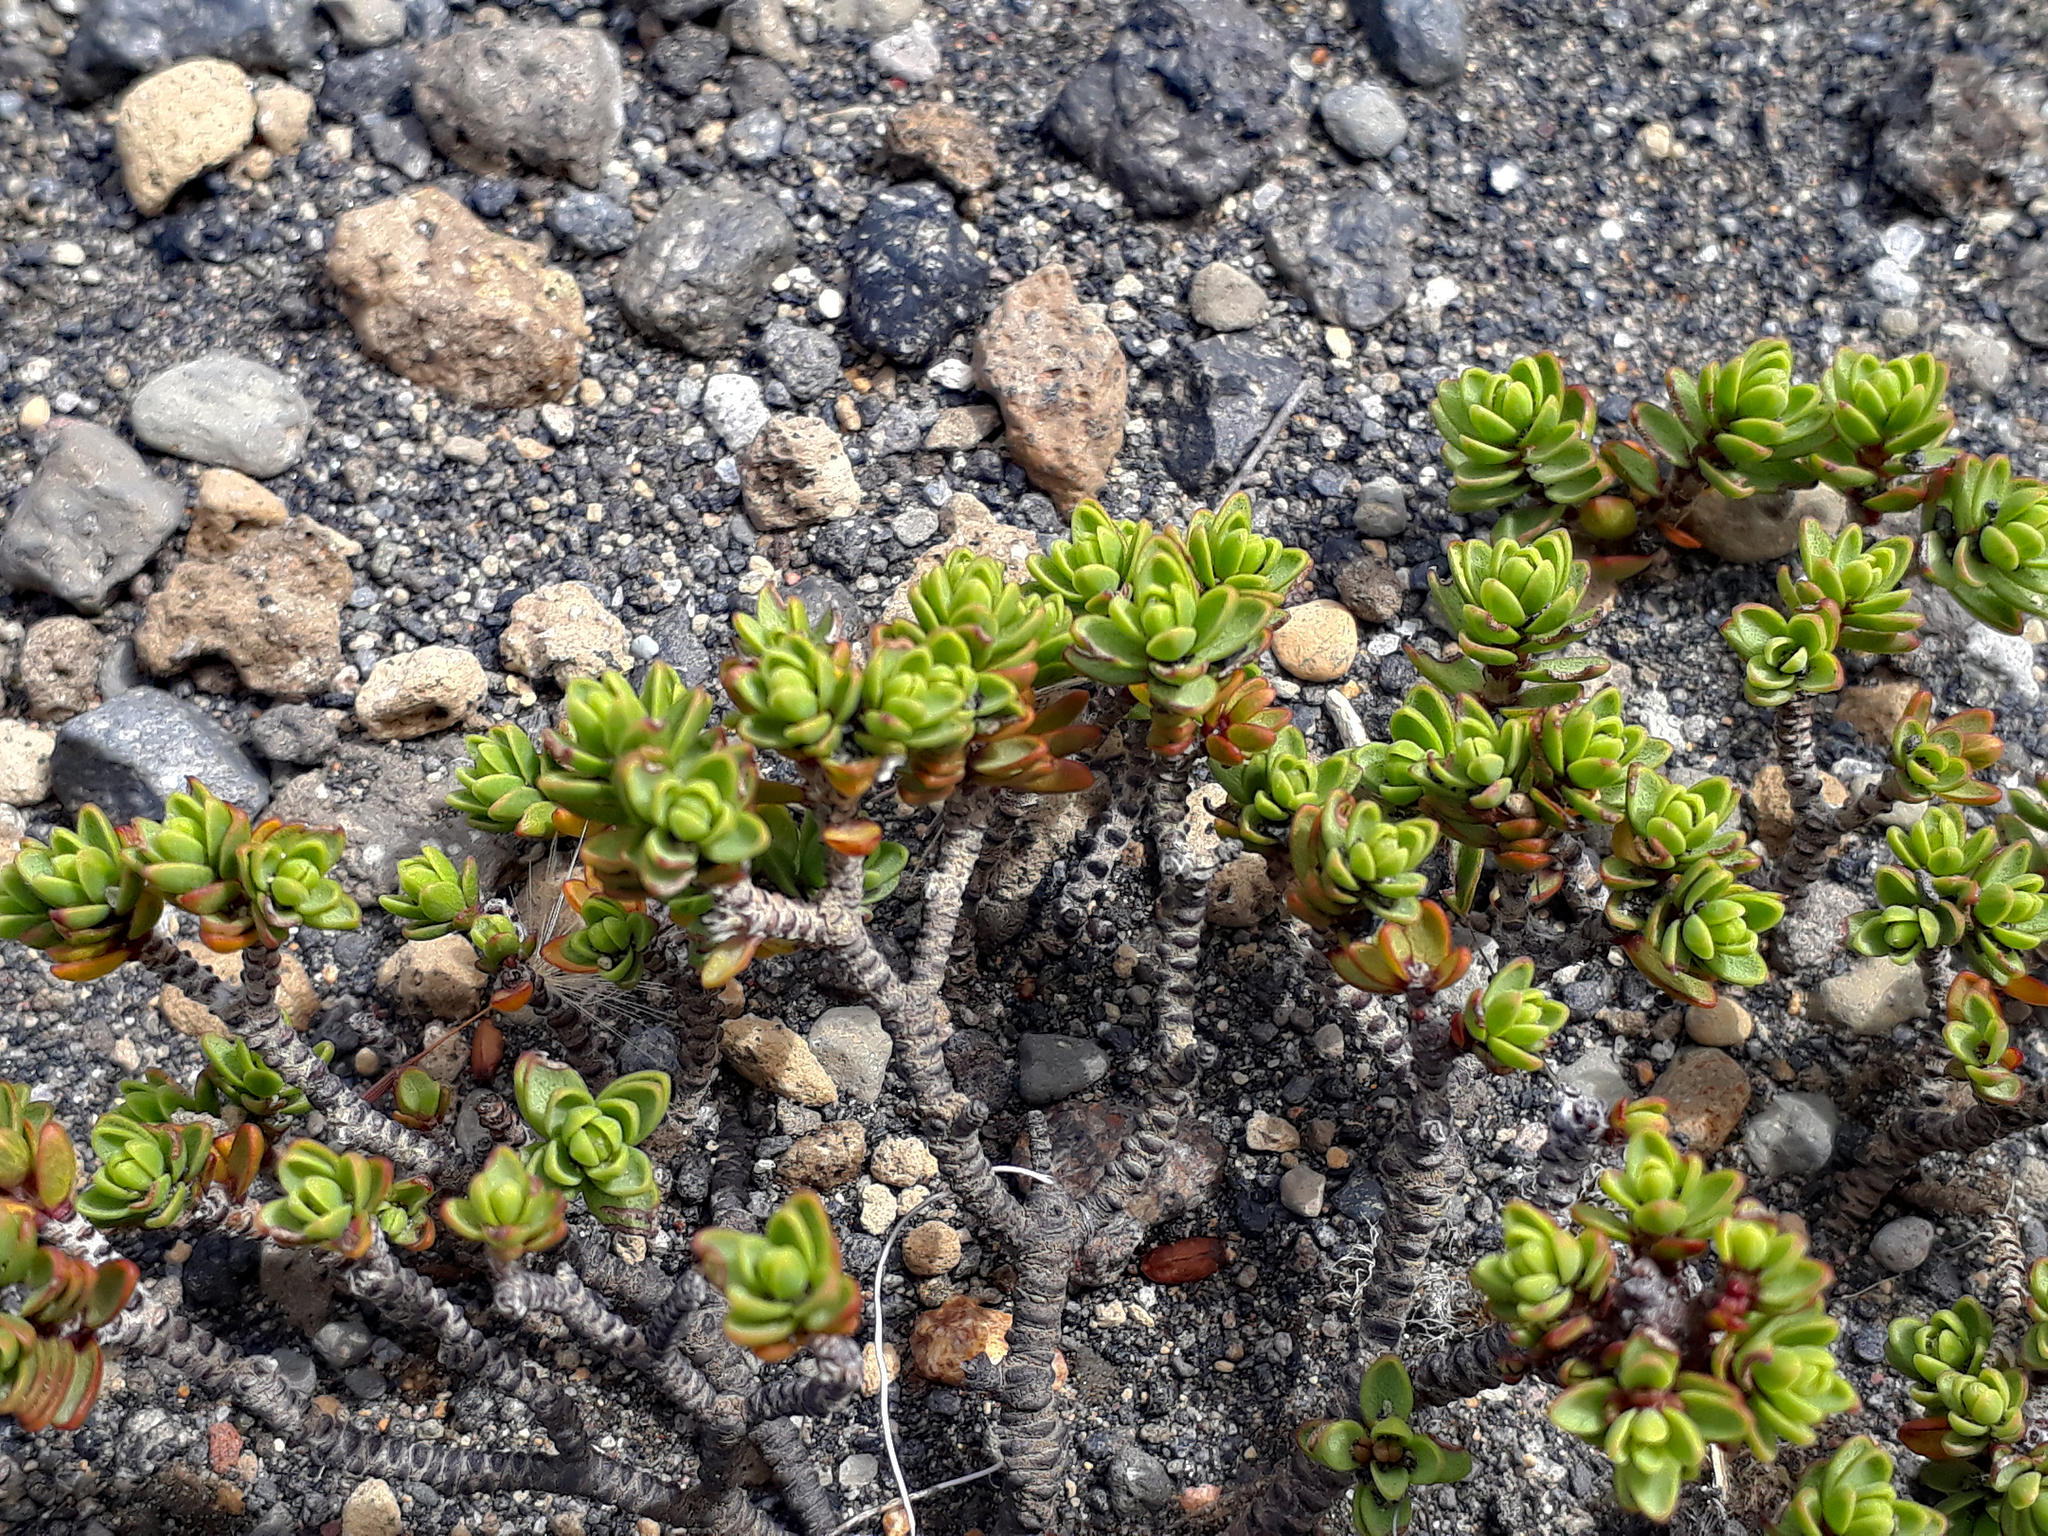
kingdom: Plantae
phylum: Tracheophyta
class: Magnoliopsida
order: Malvales
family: Thymelaeaceae
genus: Pimelea
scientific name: Pimelea microphylla
